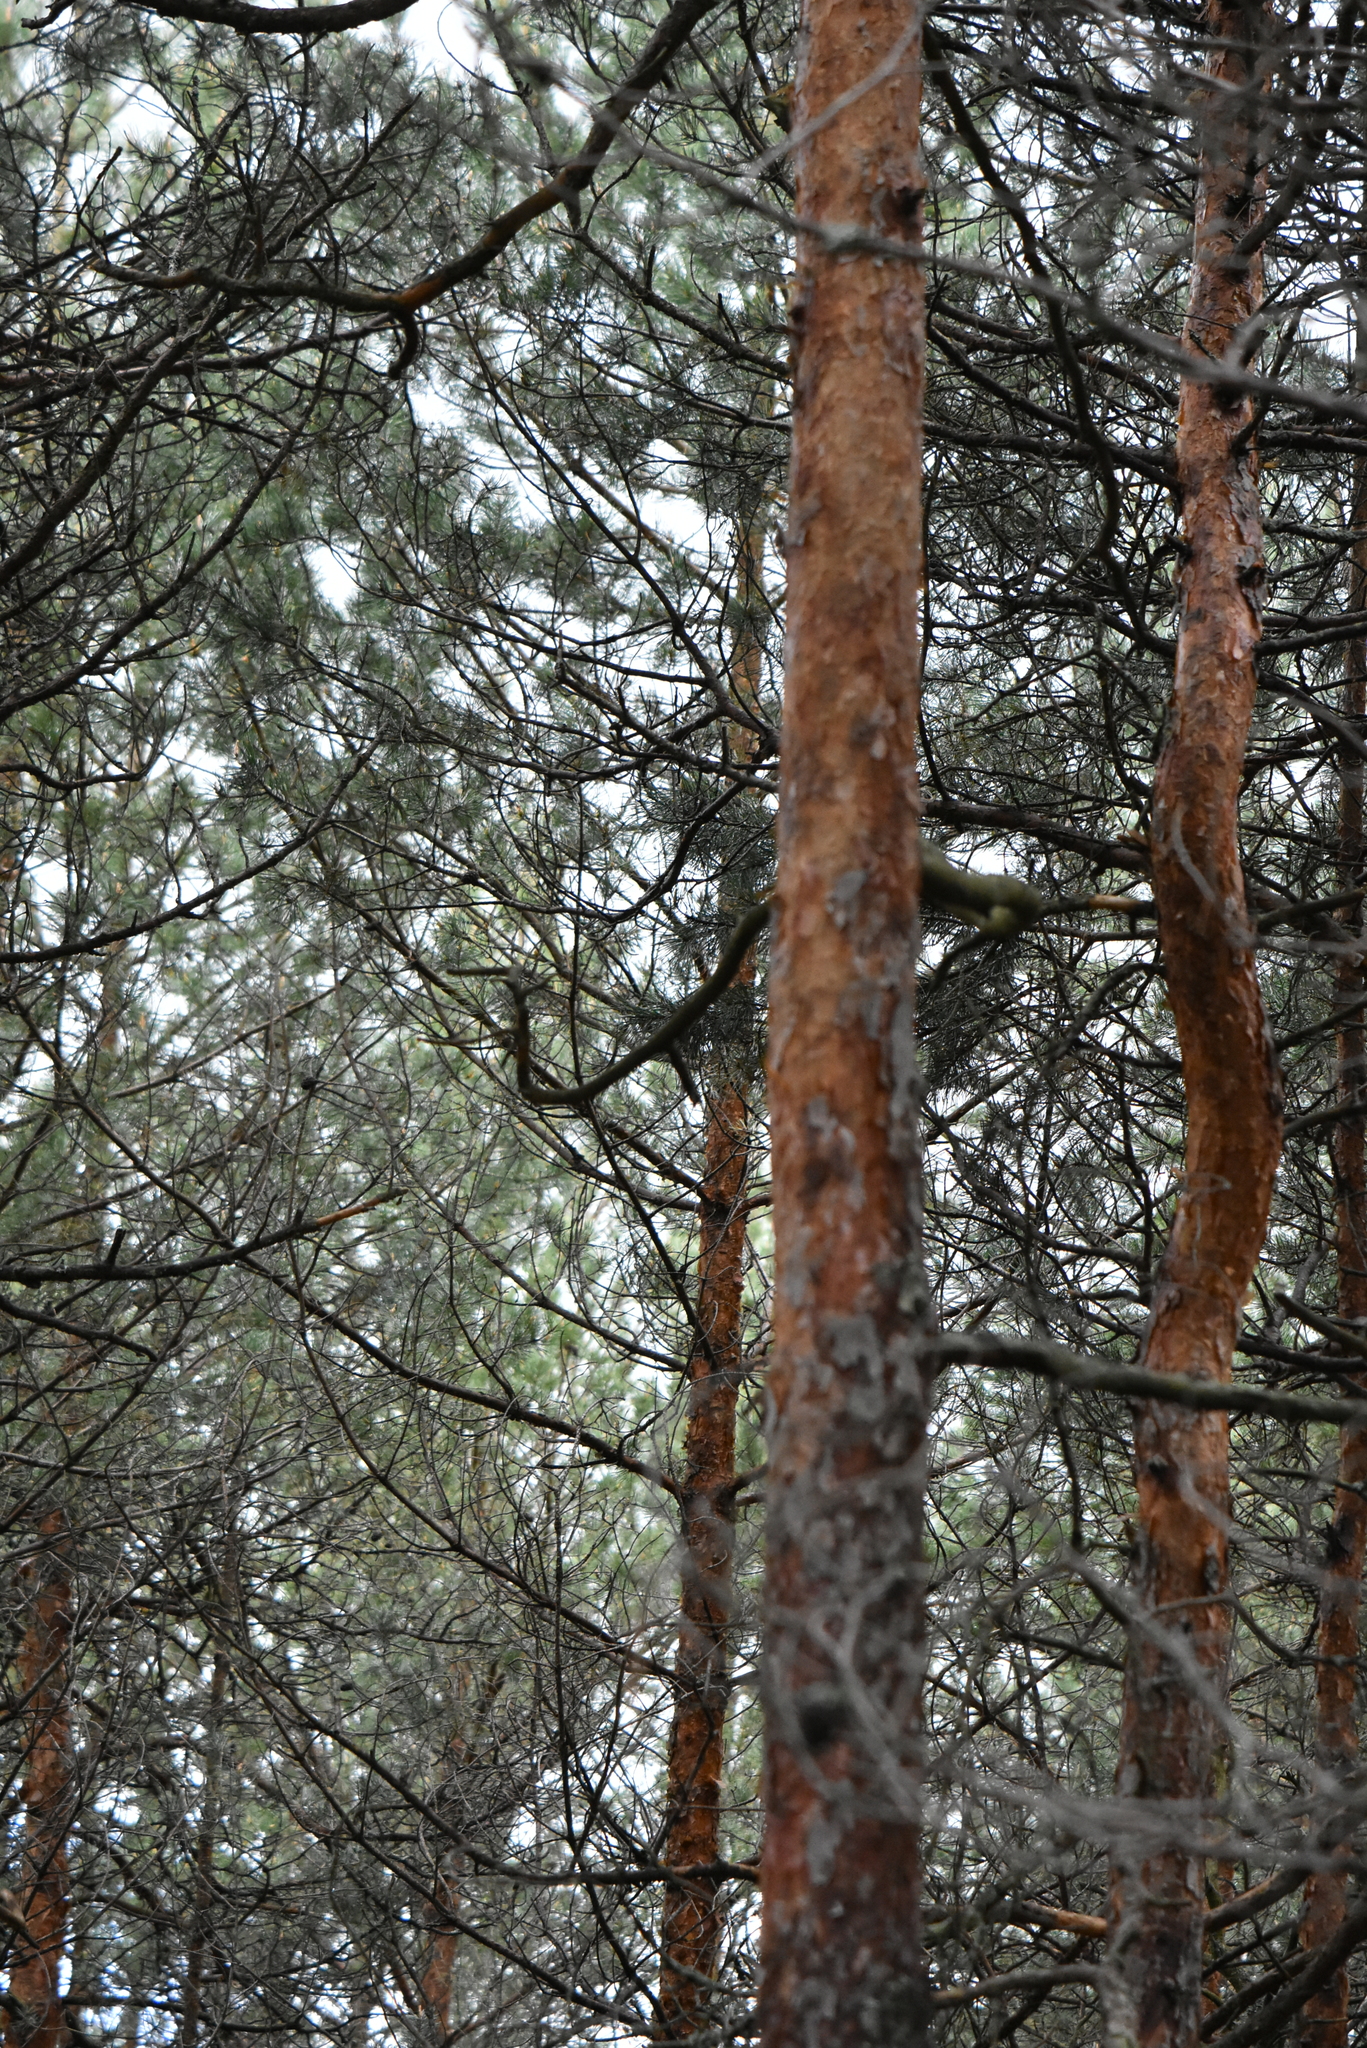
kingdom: Plantae
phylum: Tracheophyta
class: Pinopsida
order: Pinales
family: Pinaceae
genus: Pinus
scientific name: Pinus sylvestris
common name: Scots pine
